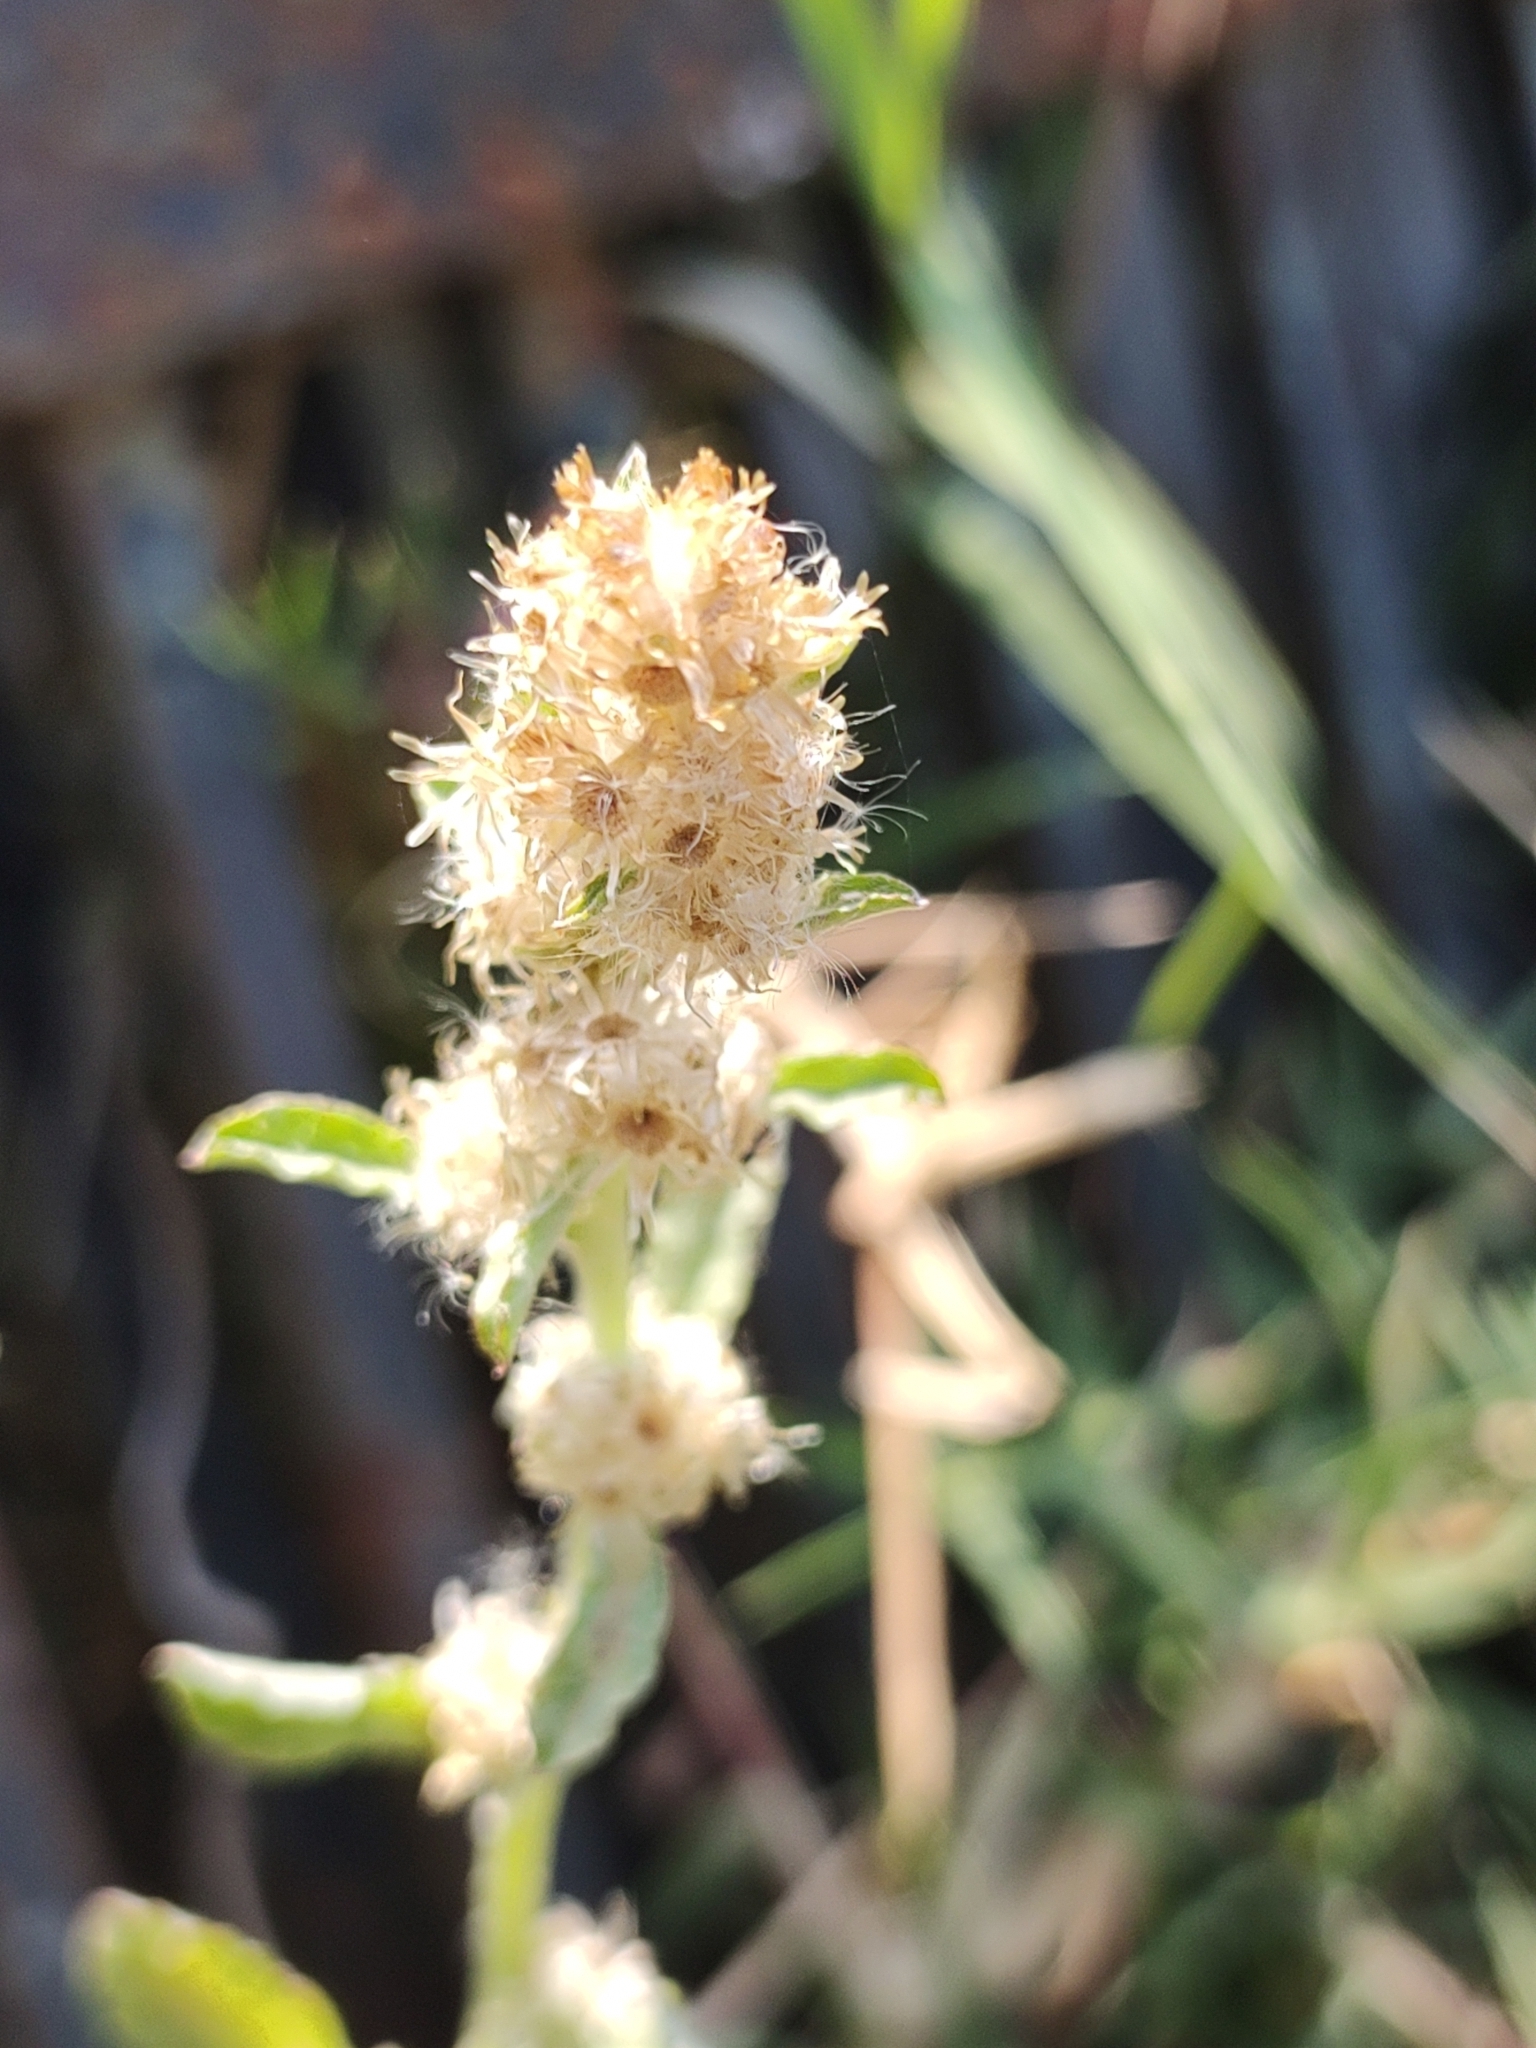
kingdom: Plantae
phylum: Tracheophyta
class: Magnoliopsida
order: Asterales
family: Asteraceae
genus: Gamochaeta
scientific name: Gamochaeta pensylvanica
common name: Pennsylvania everlasting
